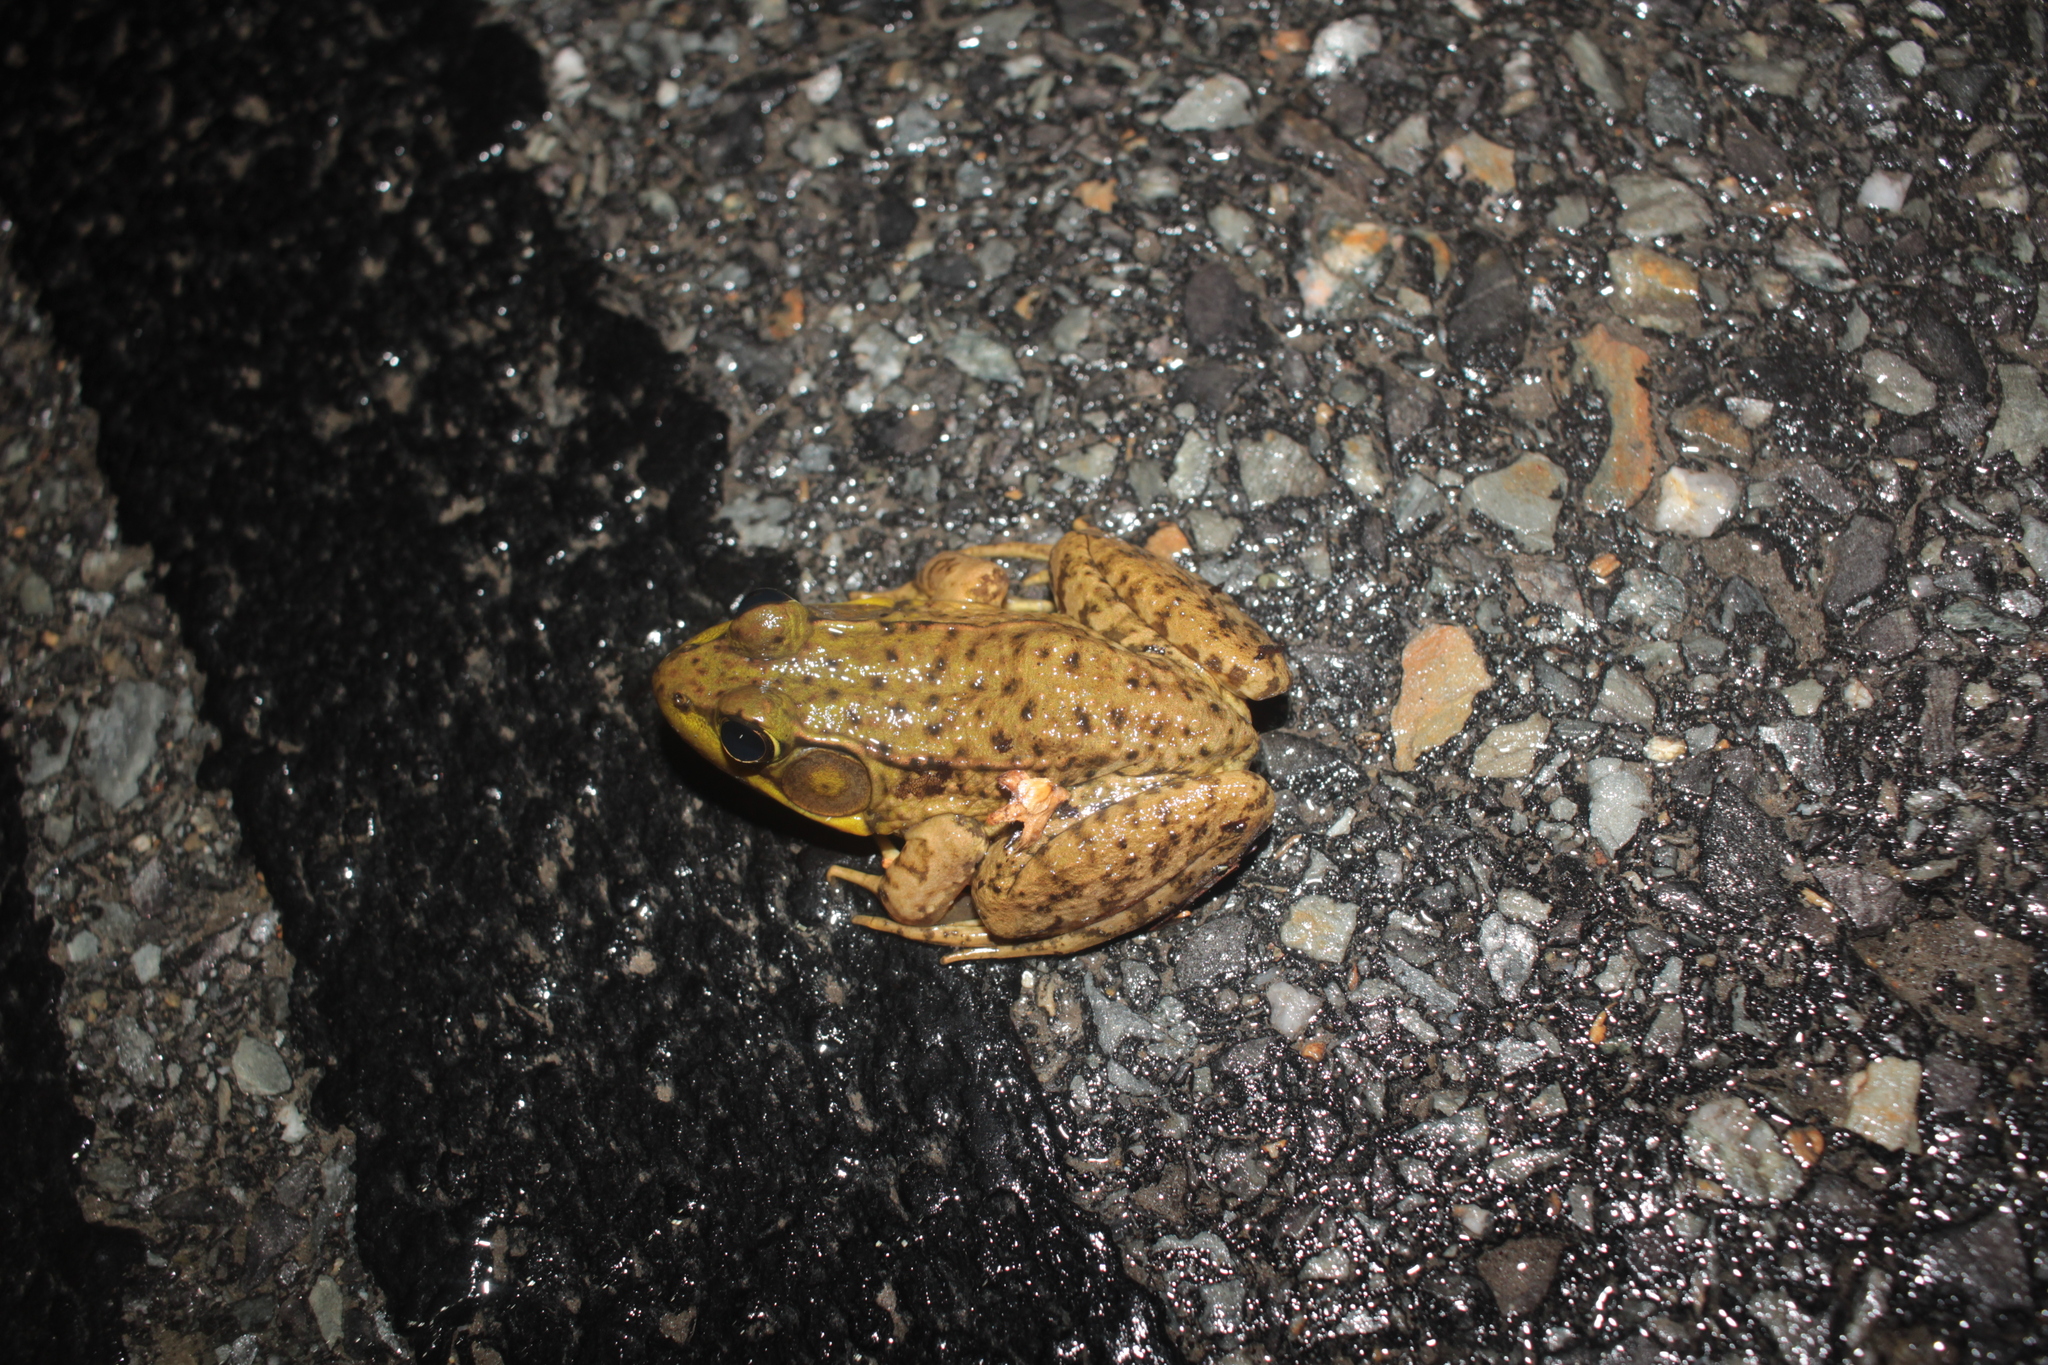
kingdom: Animalia
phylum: Chordata
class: Amphibia
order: Anura
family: Ranidae
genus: Lithobates
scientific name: Lithobates clamitans
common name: Green frog
